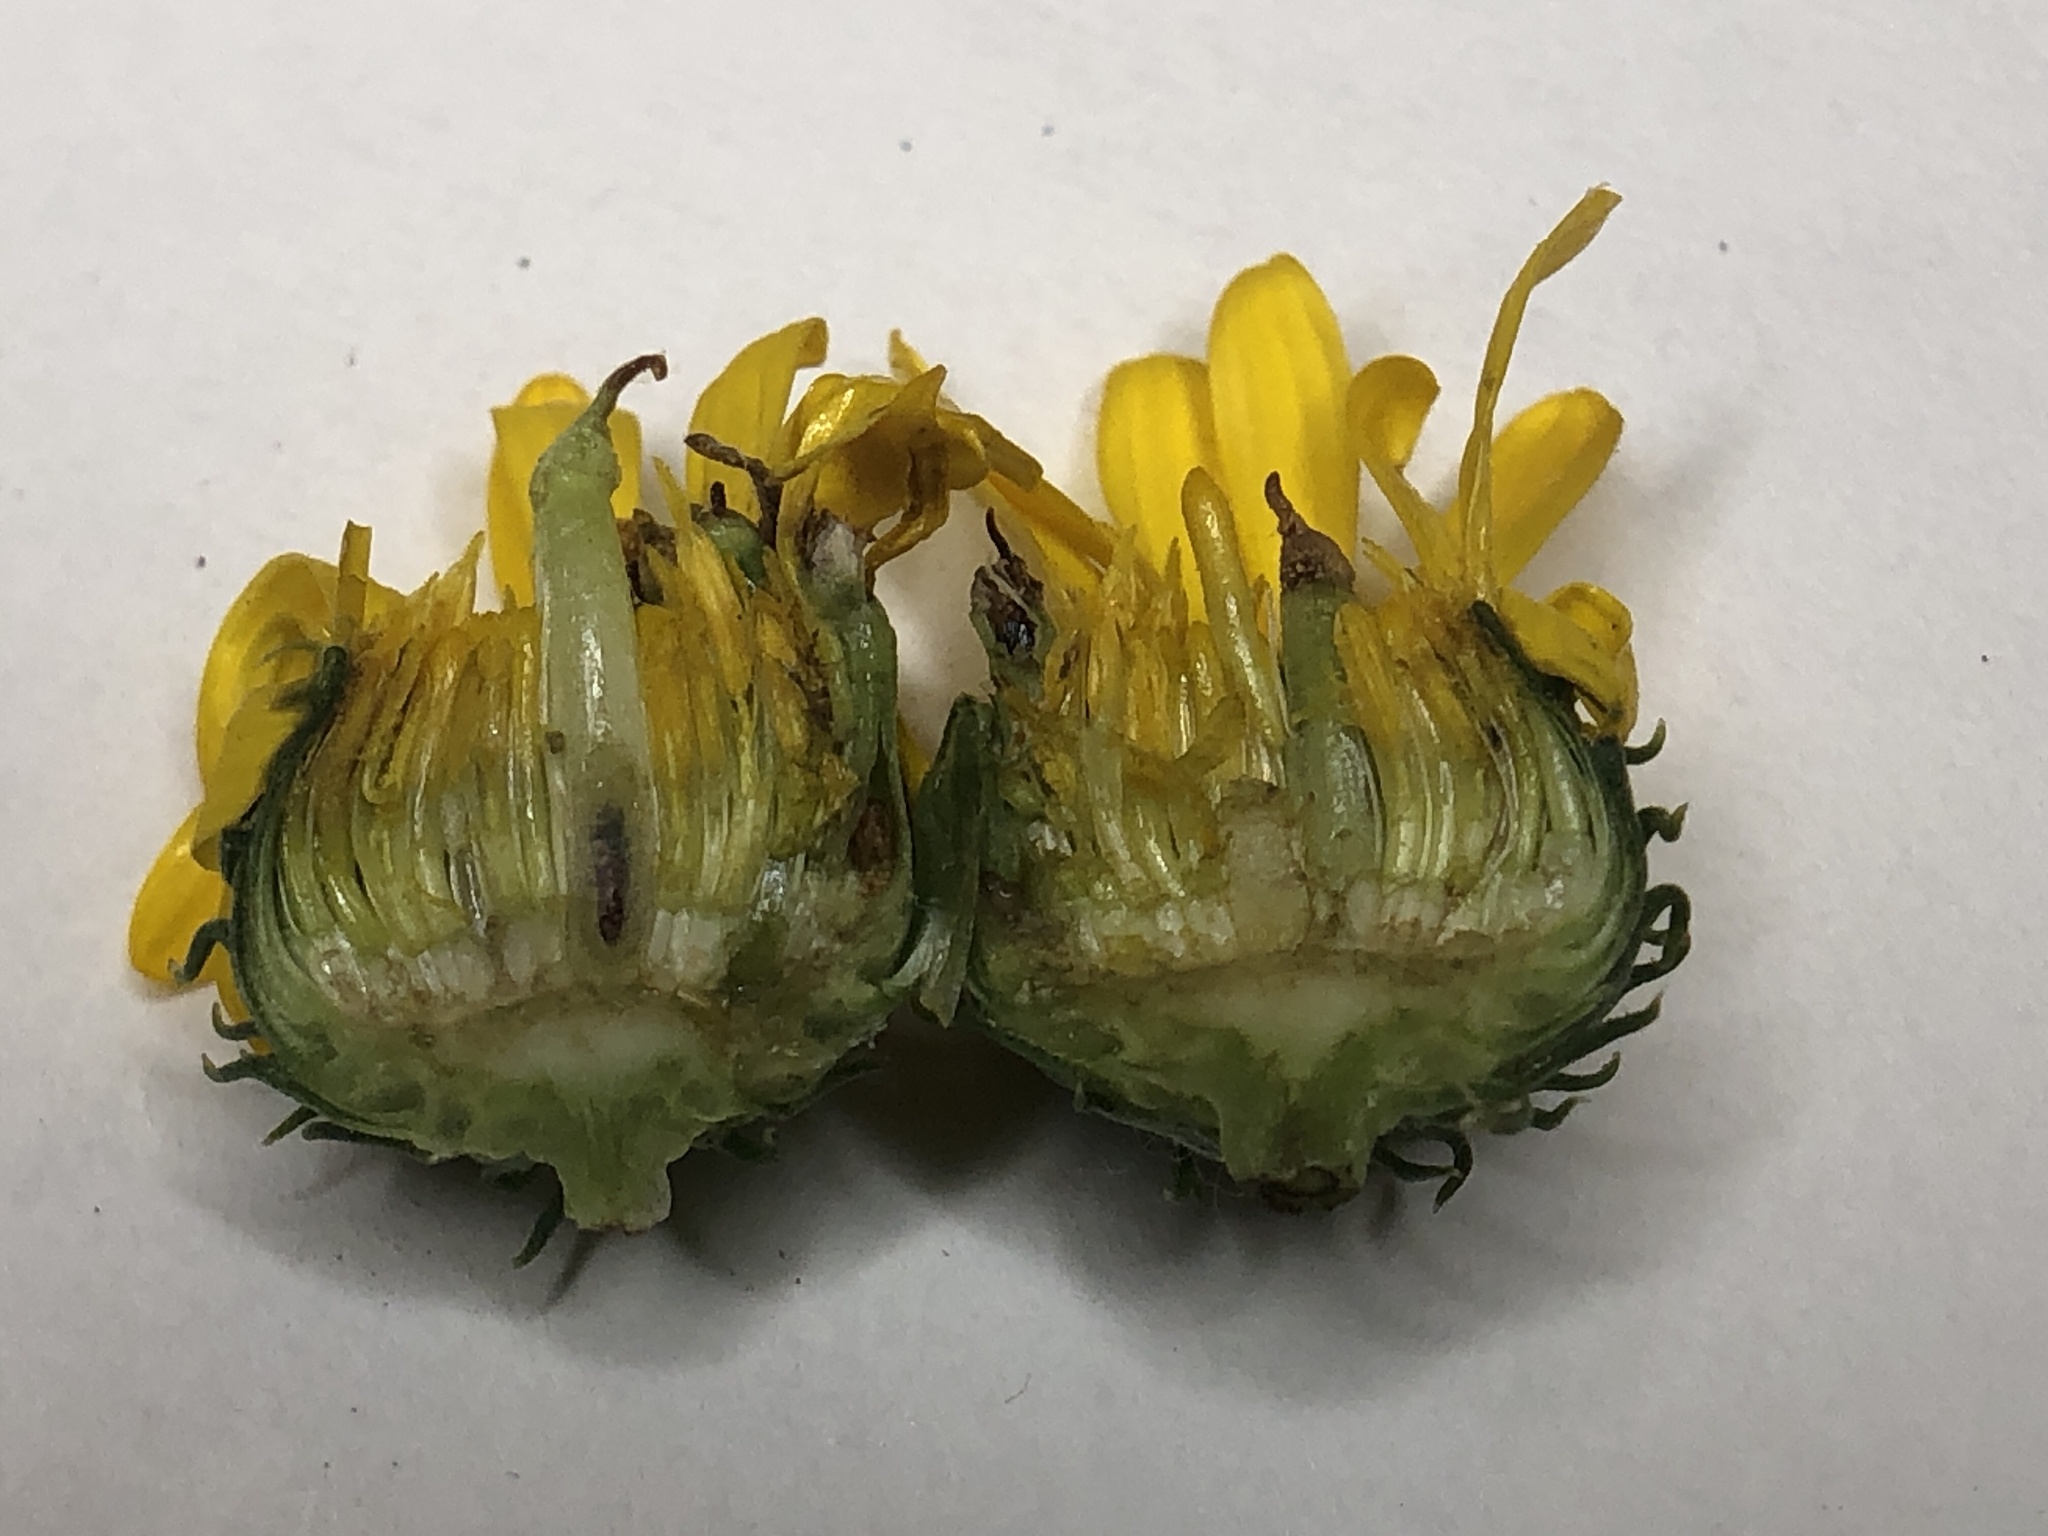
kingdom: Animalia
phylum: Arthropoda
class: Insecta
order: Diptera
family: Cecidomyiidae
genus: Rhopalomyia
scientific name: Rhopalomyia grindeliae
